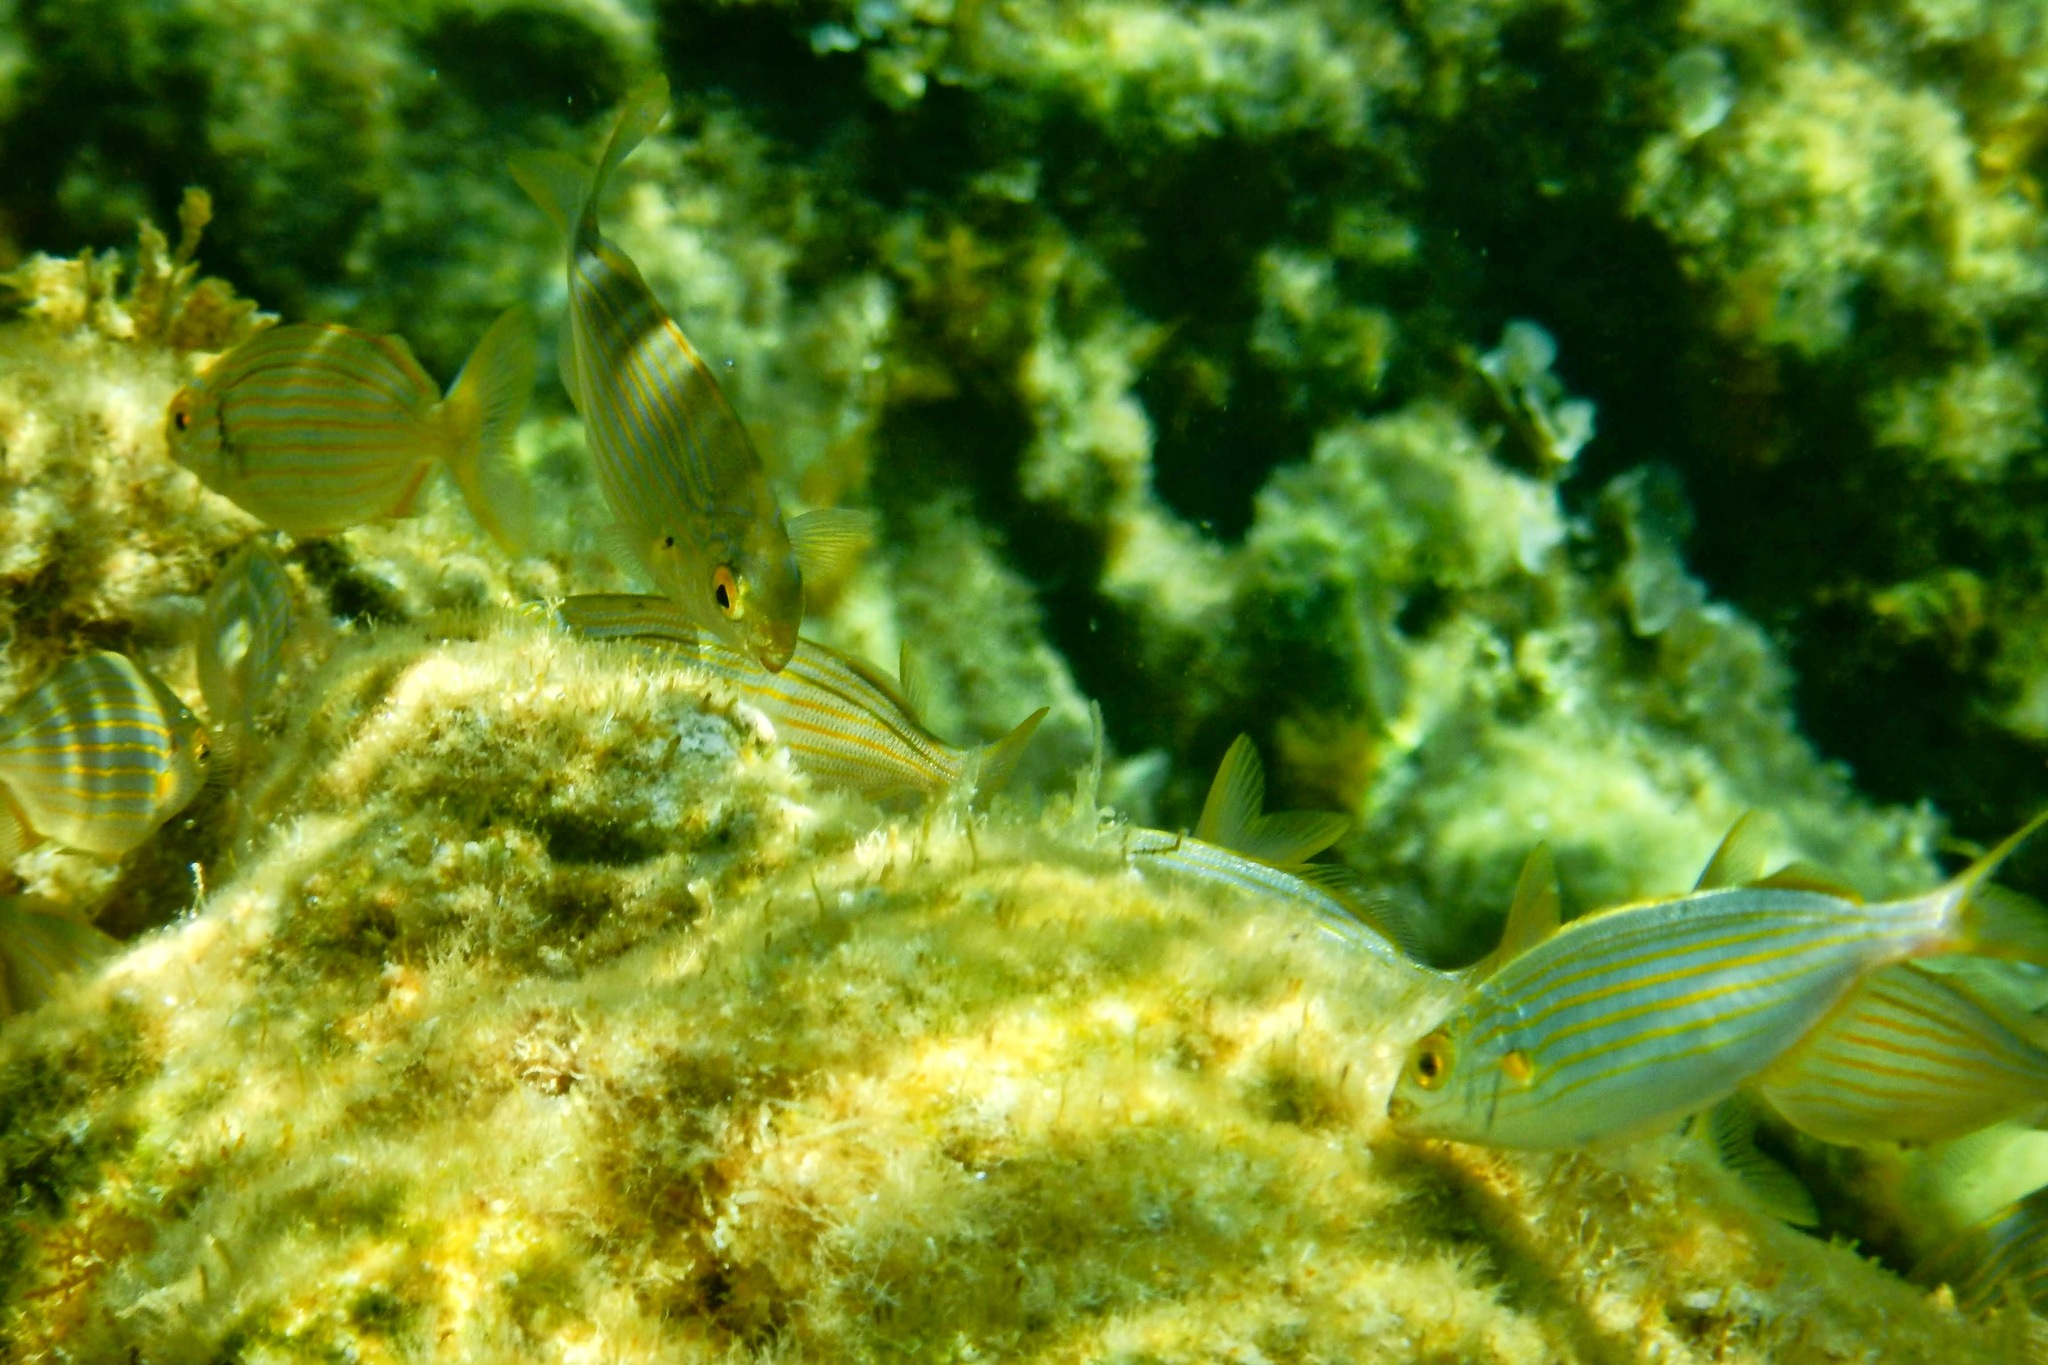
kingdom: Animalia
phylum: Chordata
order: Perciformes
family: Sparidae
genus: Sarpa
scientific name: Sarpa salpa
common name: Salema
